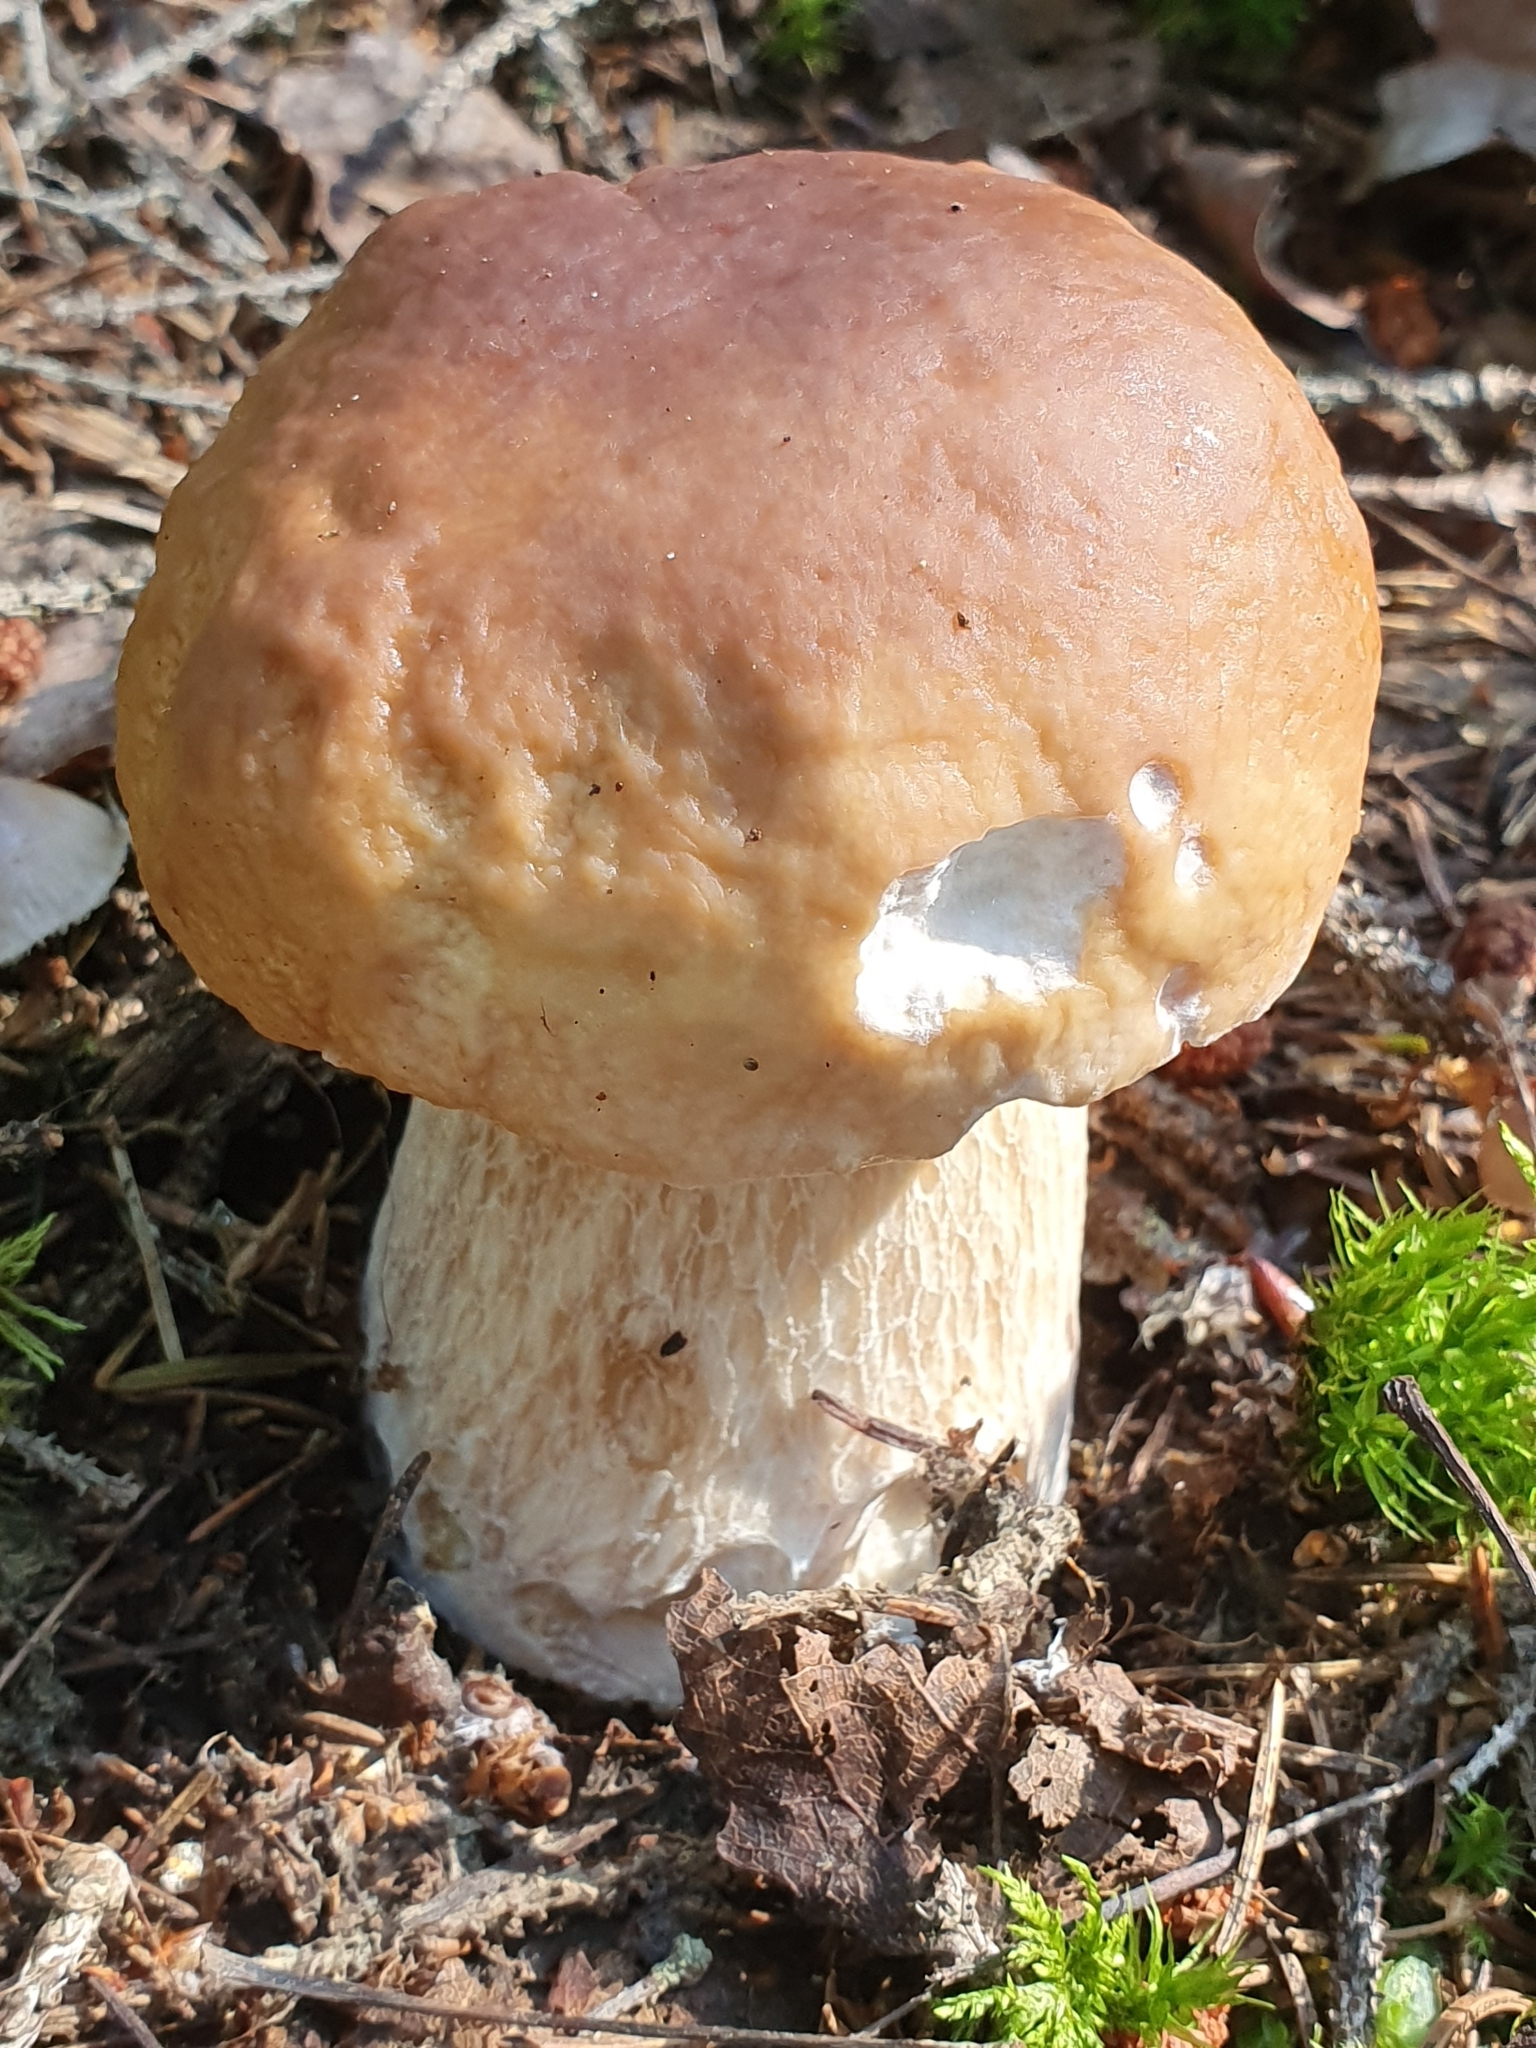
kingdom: Fungi
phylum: Basidiomycota
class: Agaricomycetes
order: Boletales
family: Boletaceae
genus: Boletus
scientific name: Boletus edulis
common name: Cep
